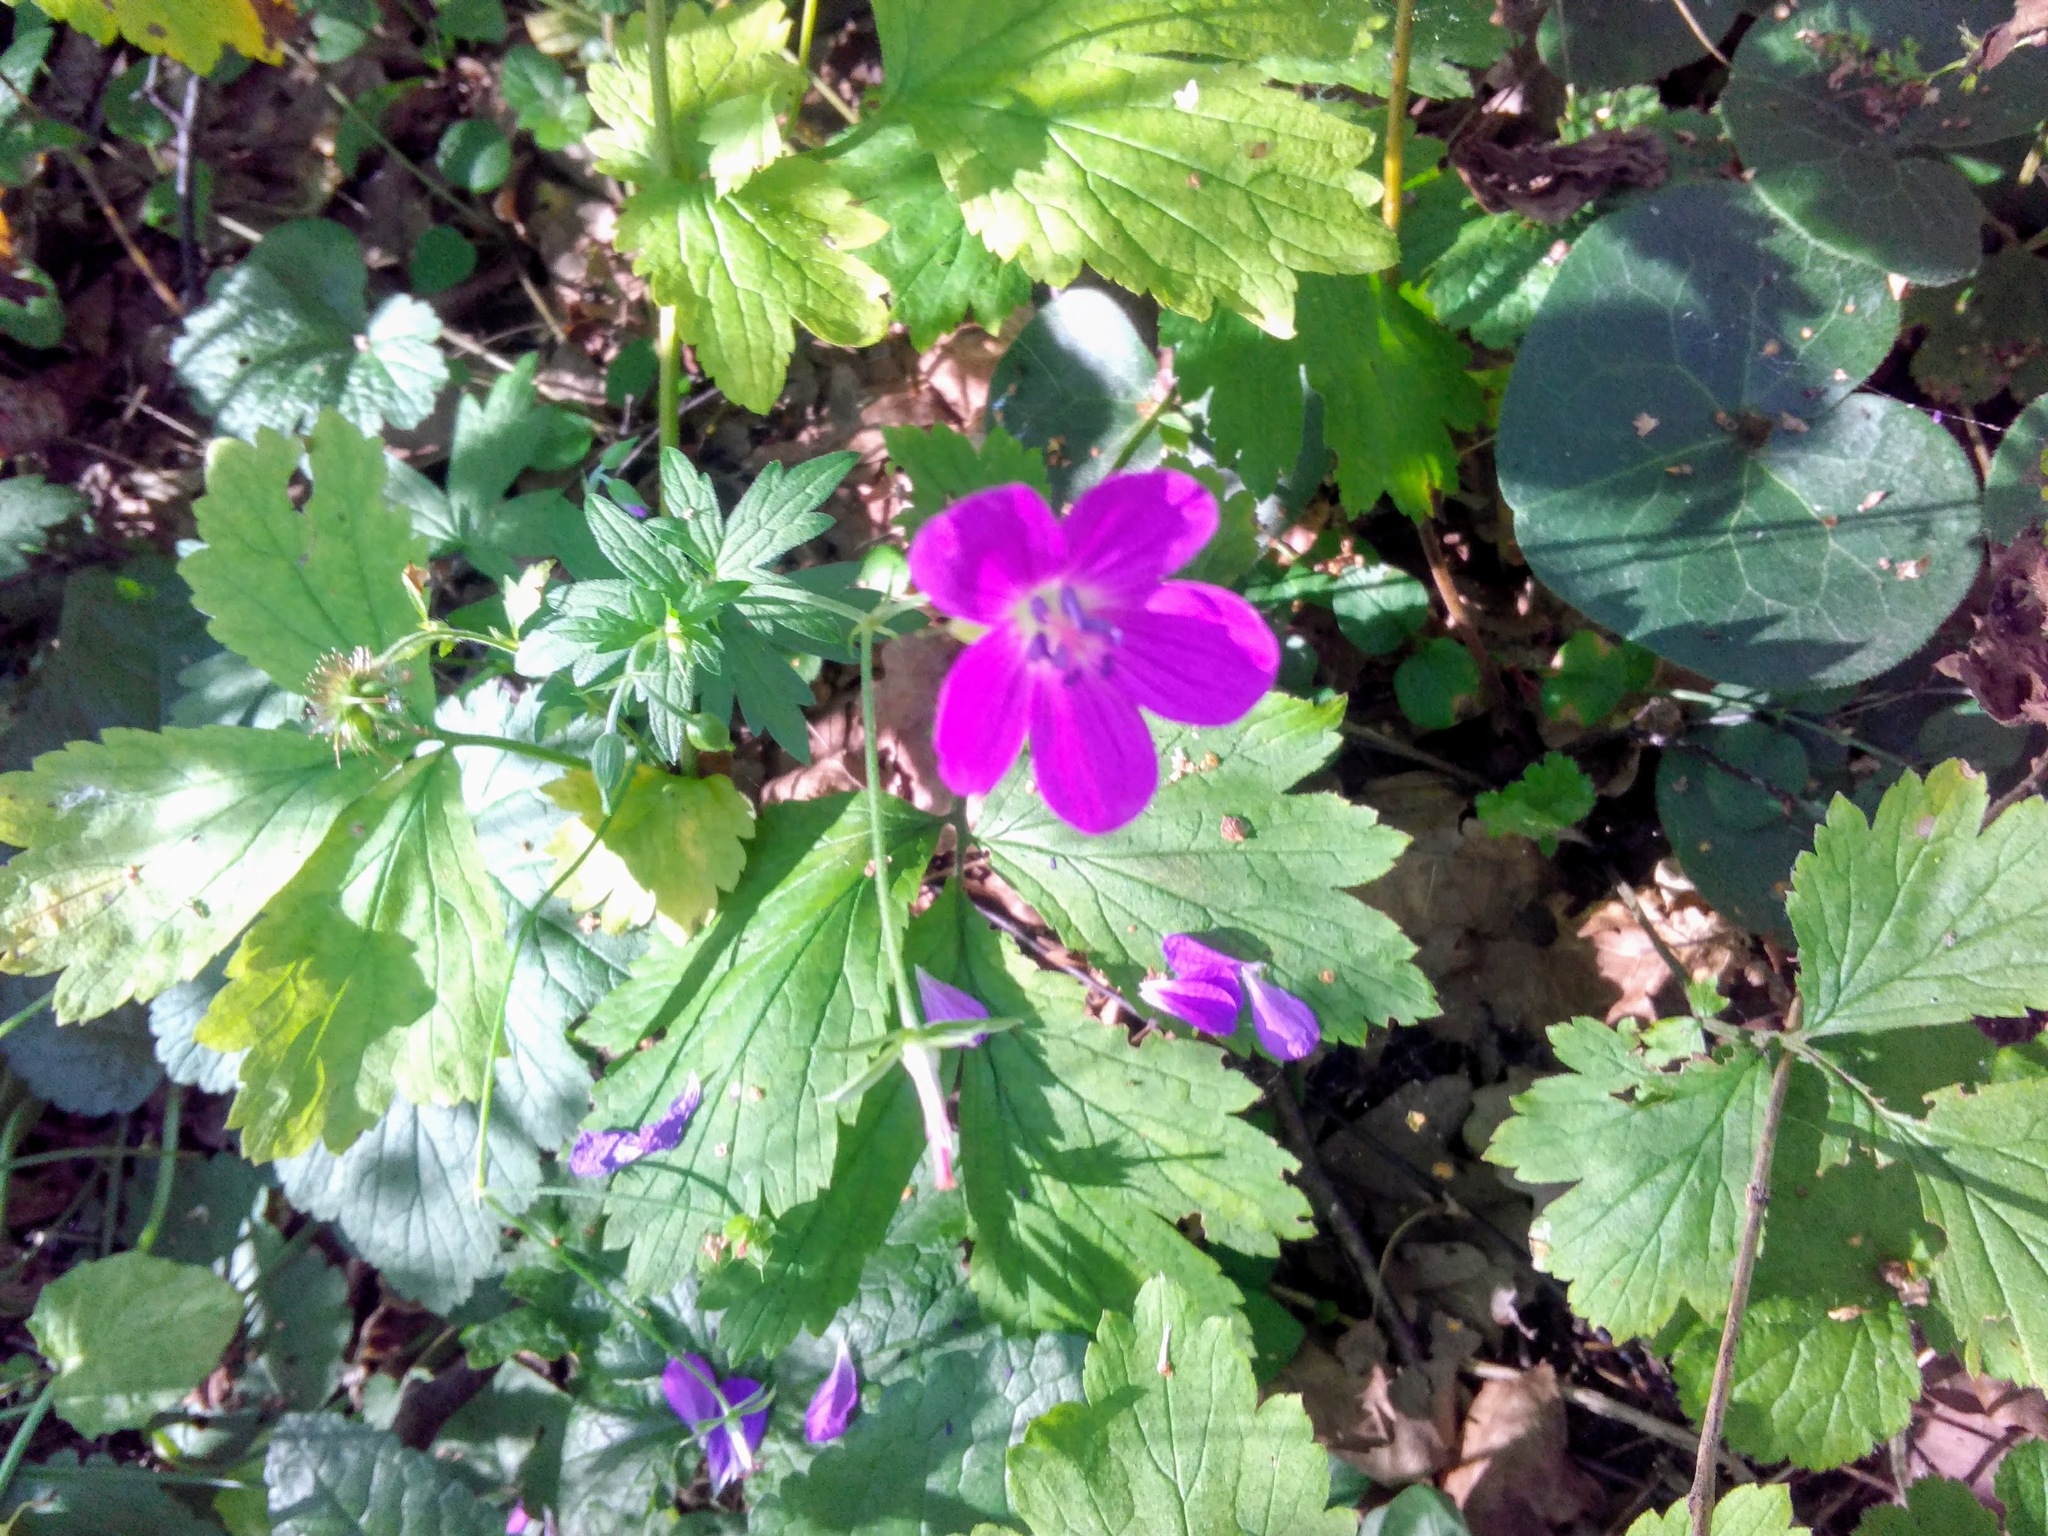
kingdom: Plantae
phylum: Tracheophyta
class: Magnoliopsida
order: Geraniales
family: Geraniaceae
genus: Geranium
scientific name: Geranium palustre
